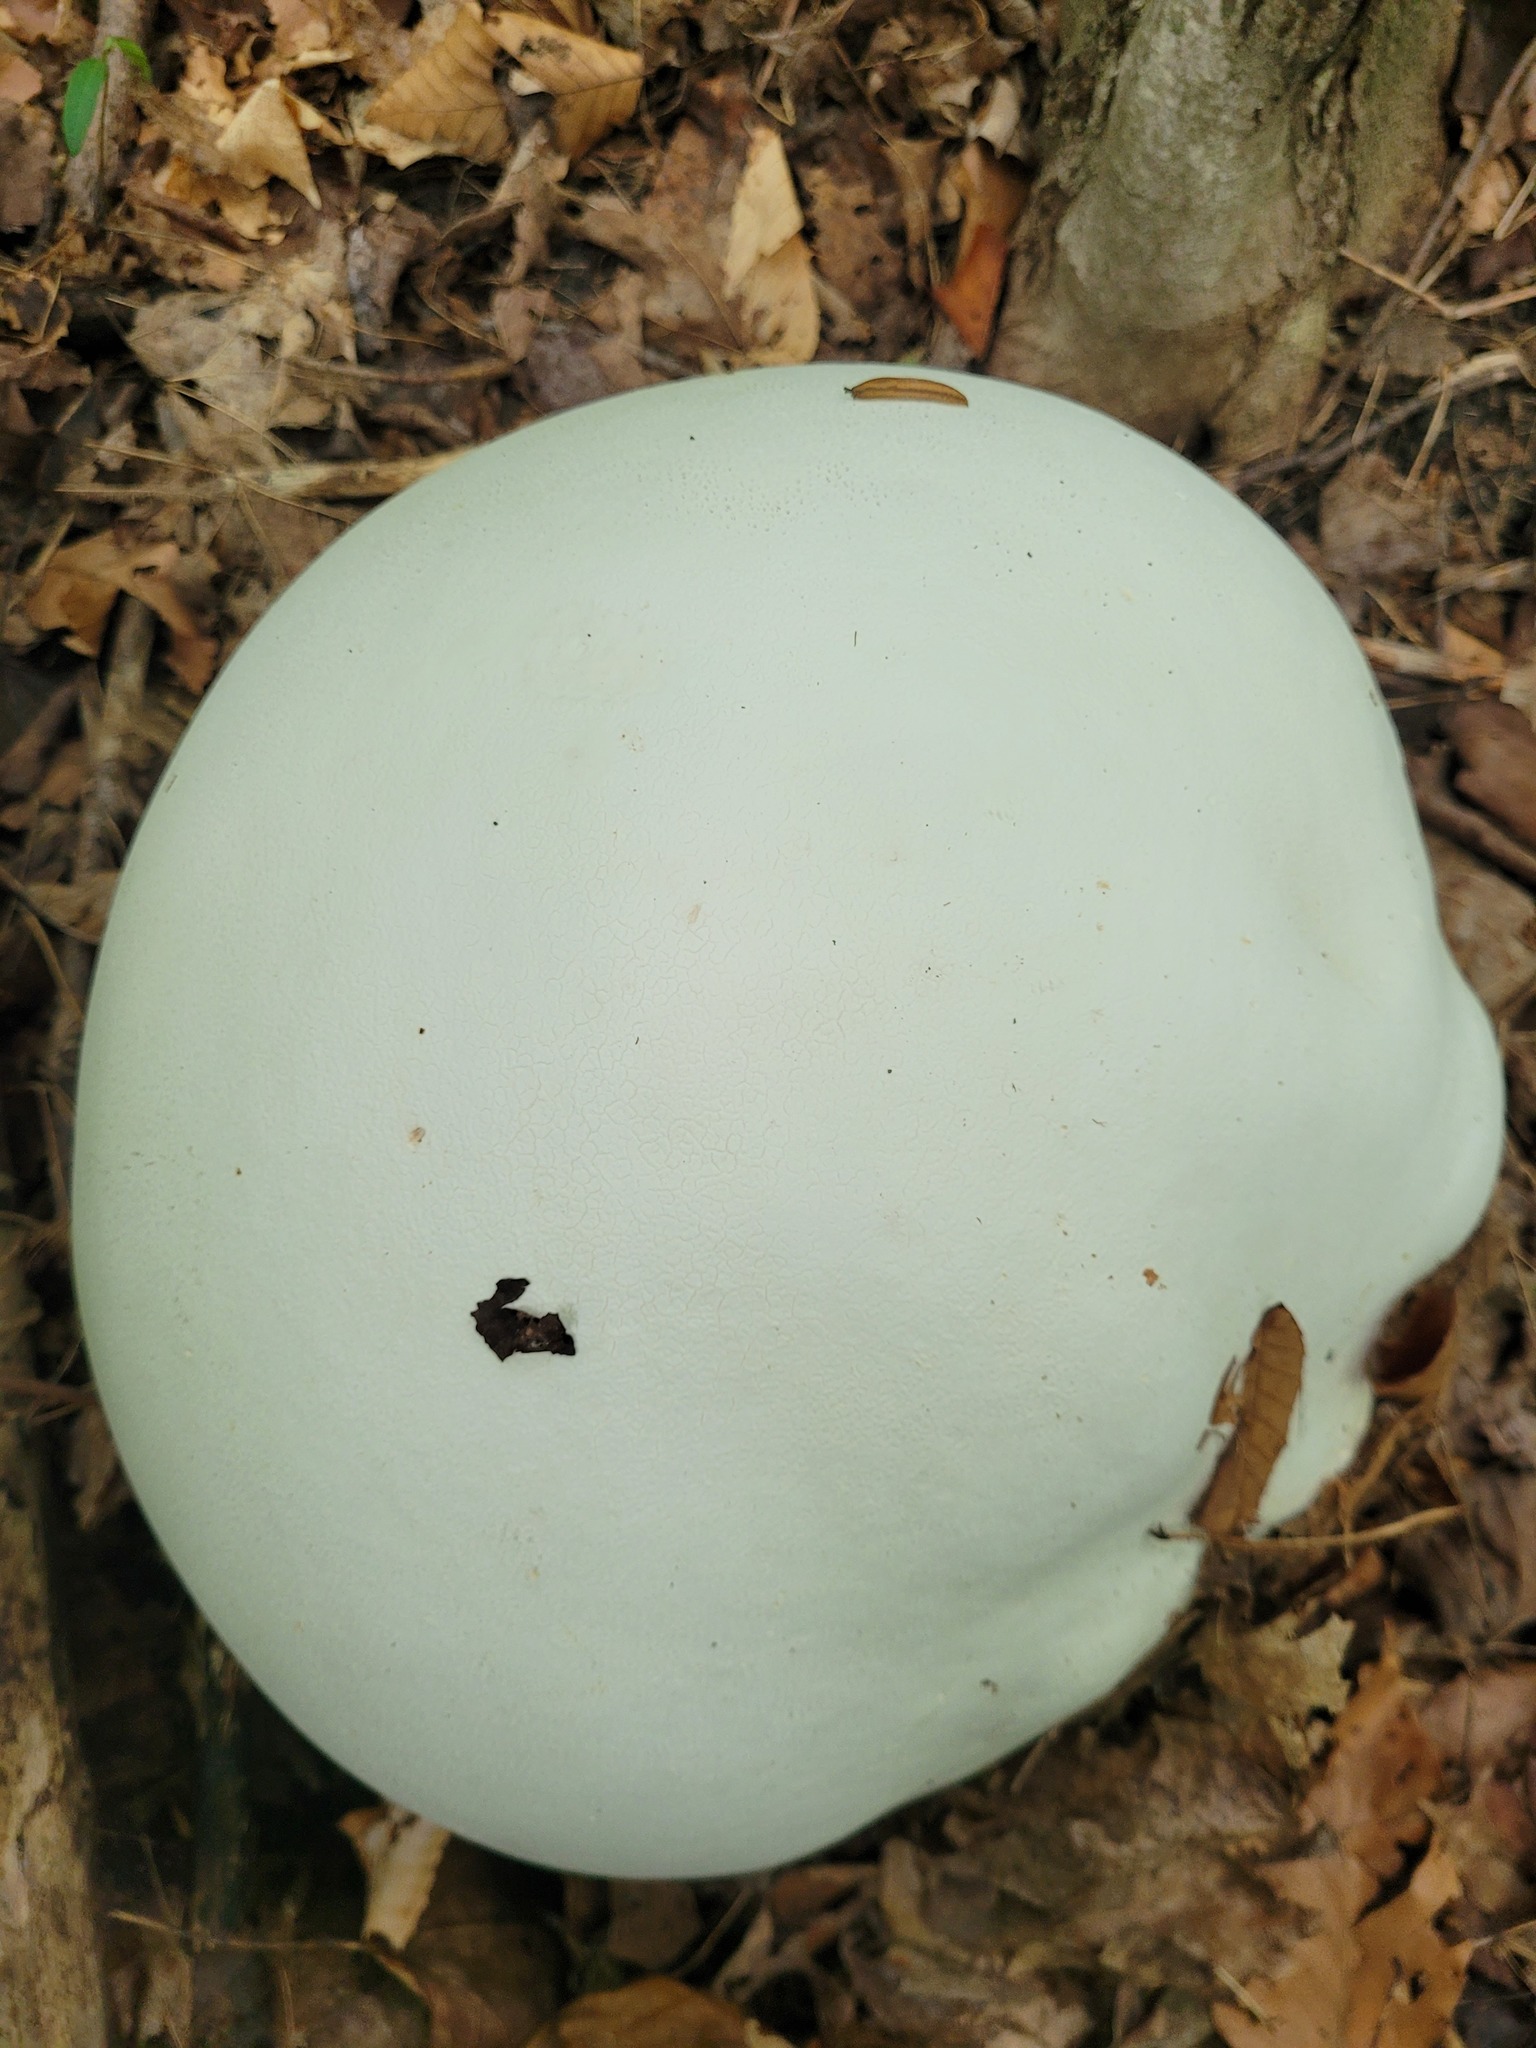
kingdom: Fungi
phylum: Basidiomycota
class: Agaricomycetes
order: Agaricales
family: Lycoperdaceae
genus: Calvatia
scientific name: Calvatia gigantea
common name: Giant puffball
